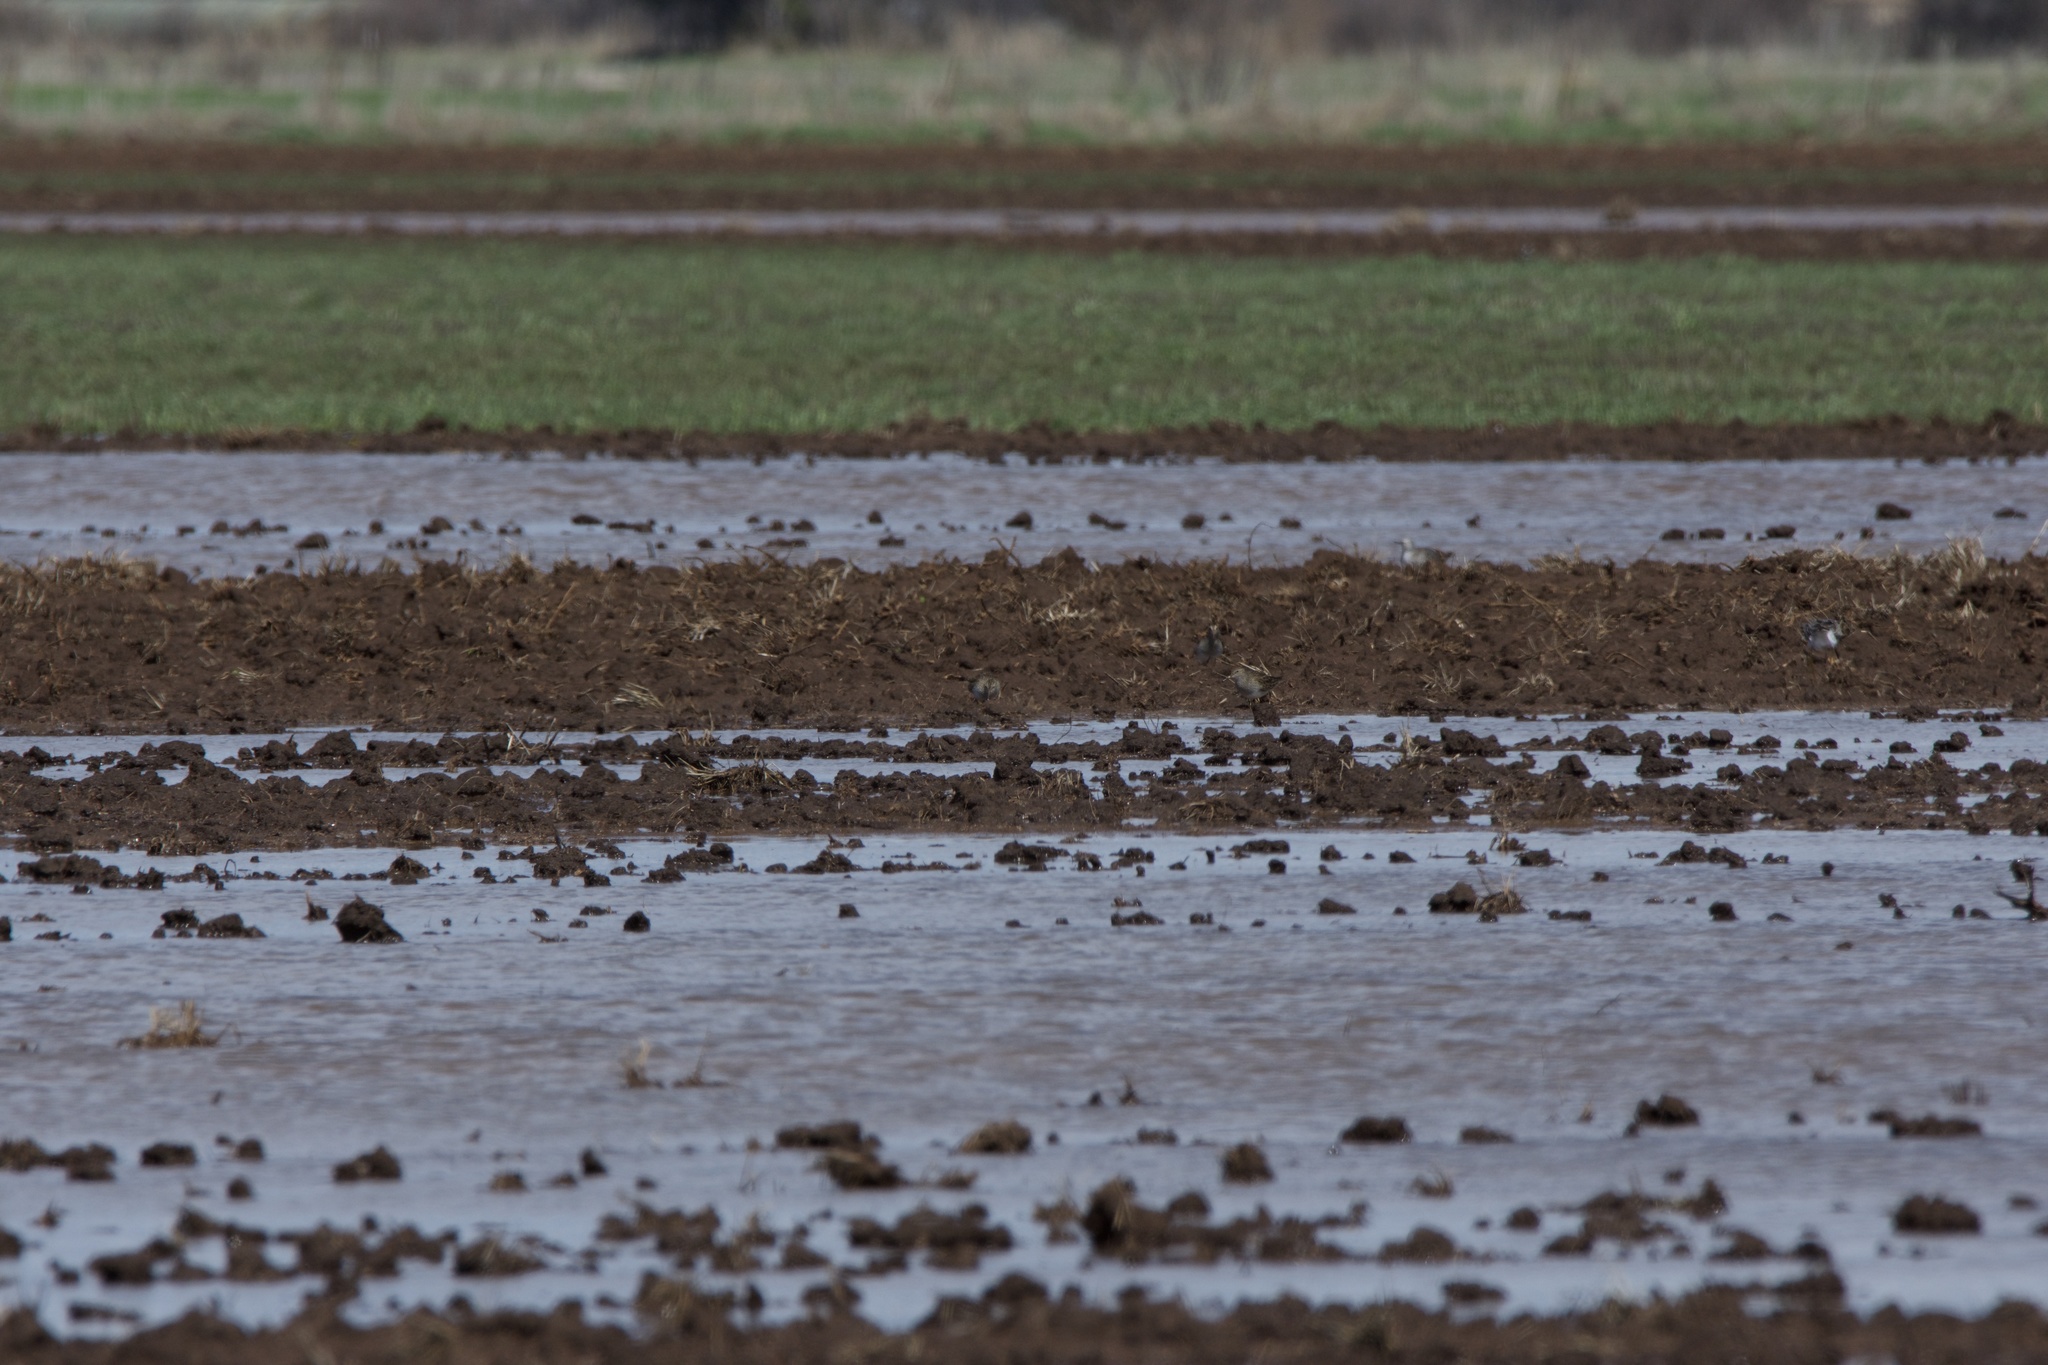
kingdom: Animalia
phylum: Chordata
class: Aves
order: Charadriiformes
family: Scolopacidae
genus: Calidris
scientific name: Calidris melanotos
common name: Pectoral sandpiper
